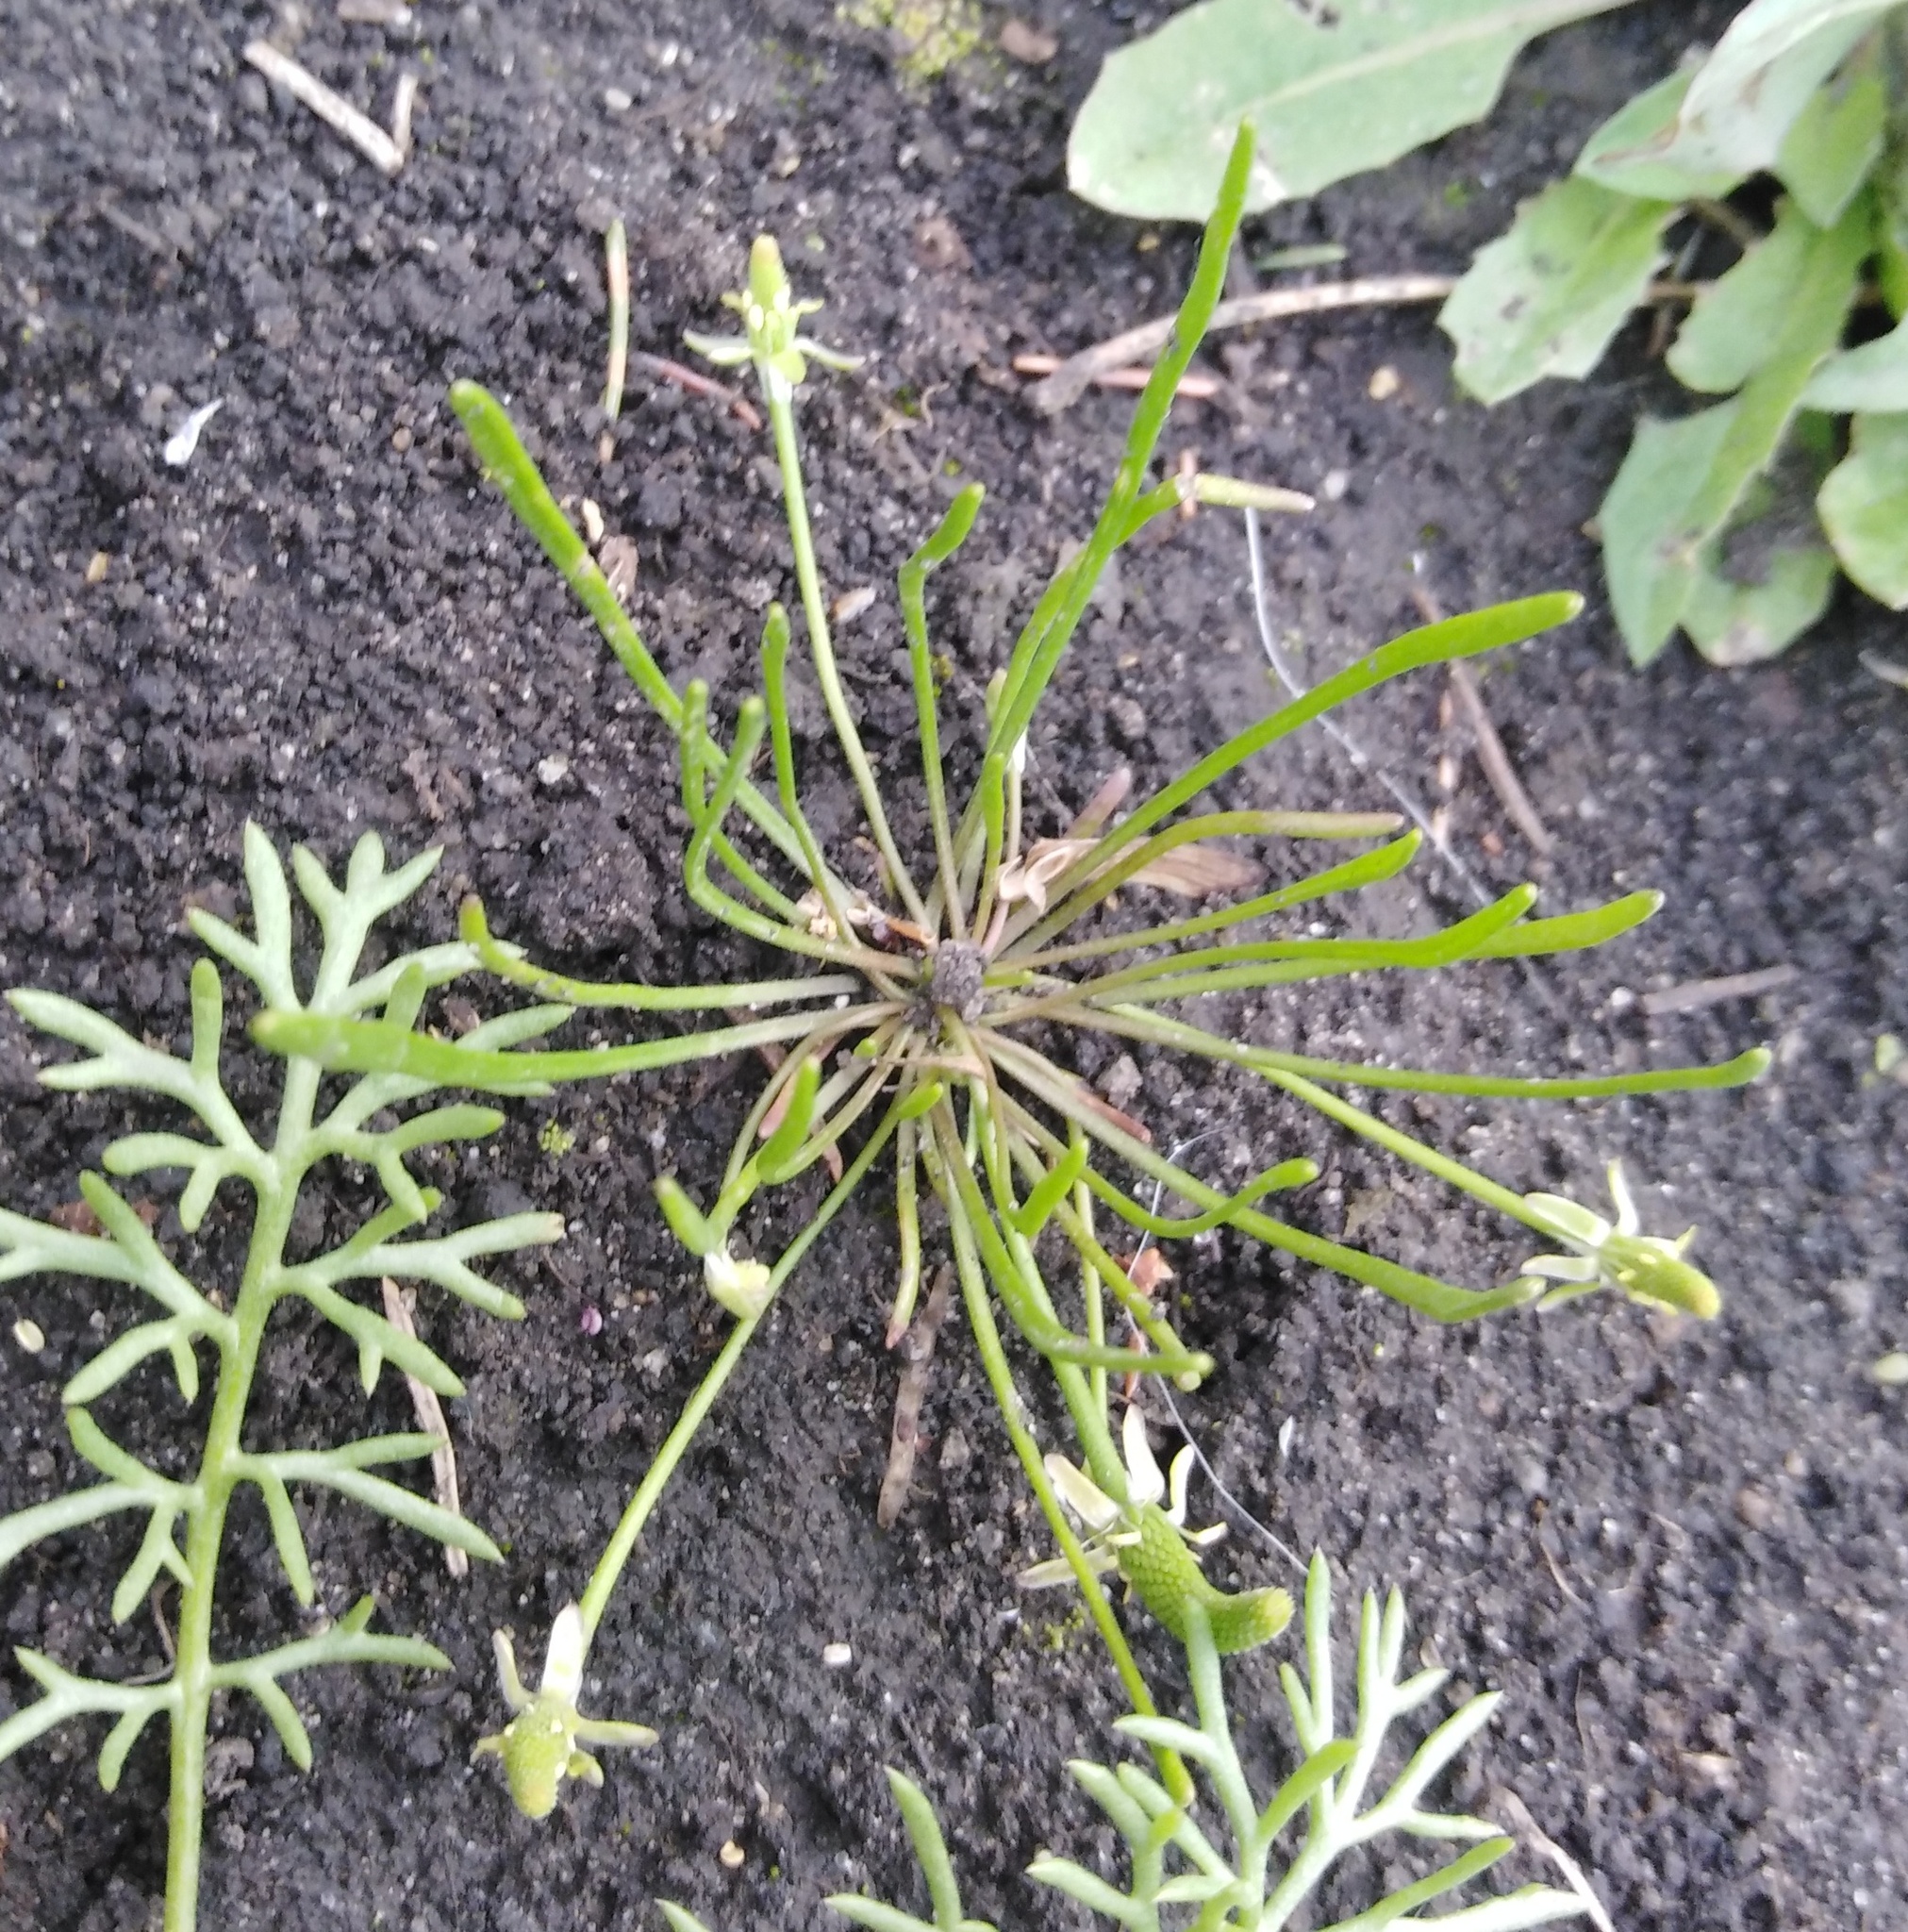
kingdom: Plantae
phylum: Tracheophyta
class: Magnoliopsida
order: Ranunculales
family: Ranunculaceae
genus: Myosurus
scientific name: Myosurus minimus
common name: Mousetail
